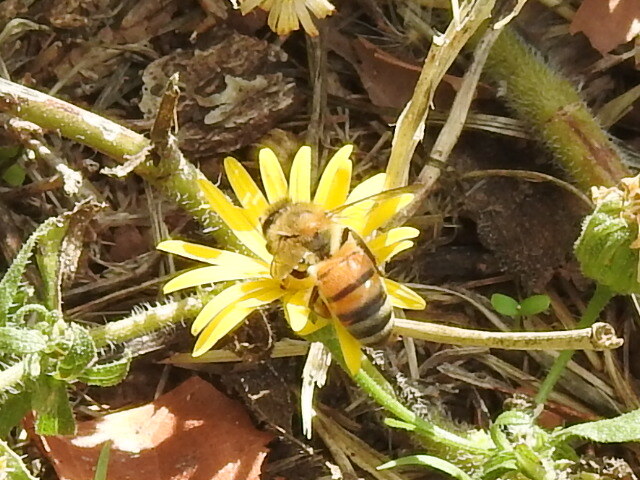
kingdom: Animalia
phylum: Arthropoda
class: Insecta
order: Hymenoptera
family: Apidae
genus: Apis
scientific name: Apis mellifera
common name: Honey bee
